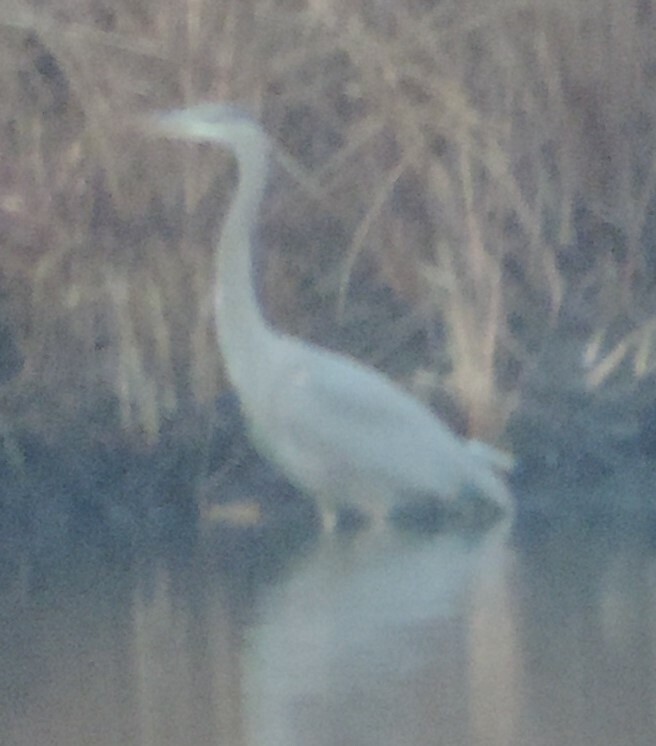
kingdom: Animalia
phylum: Chordata
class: Aves
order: Pelecaniformes
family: Ardeidae
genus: Ardea
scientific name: Ardea herodias
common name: Great blue heron
